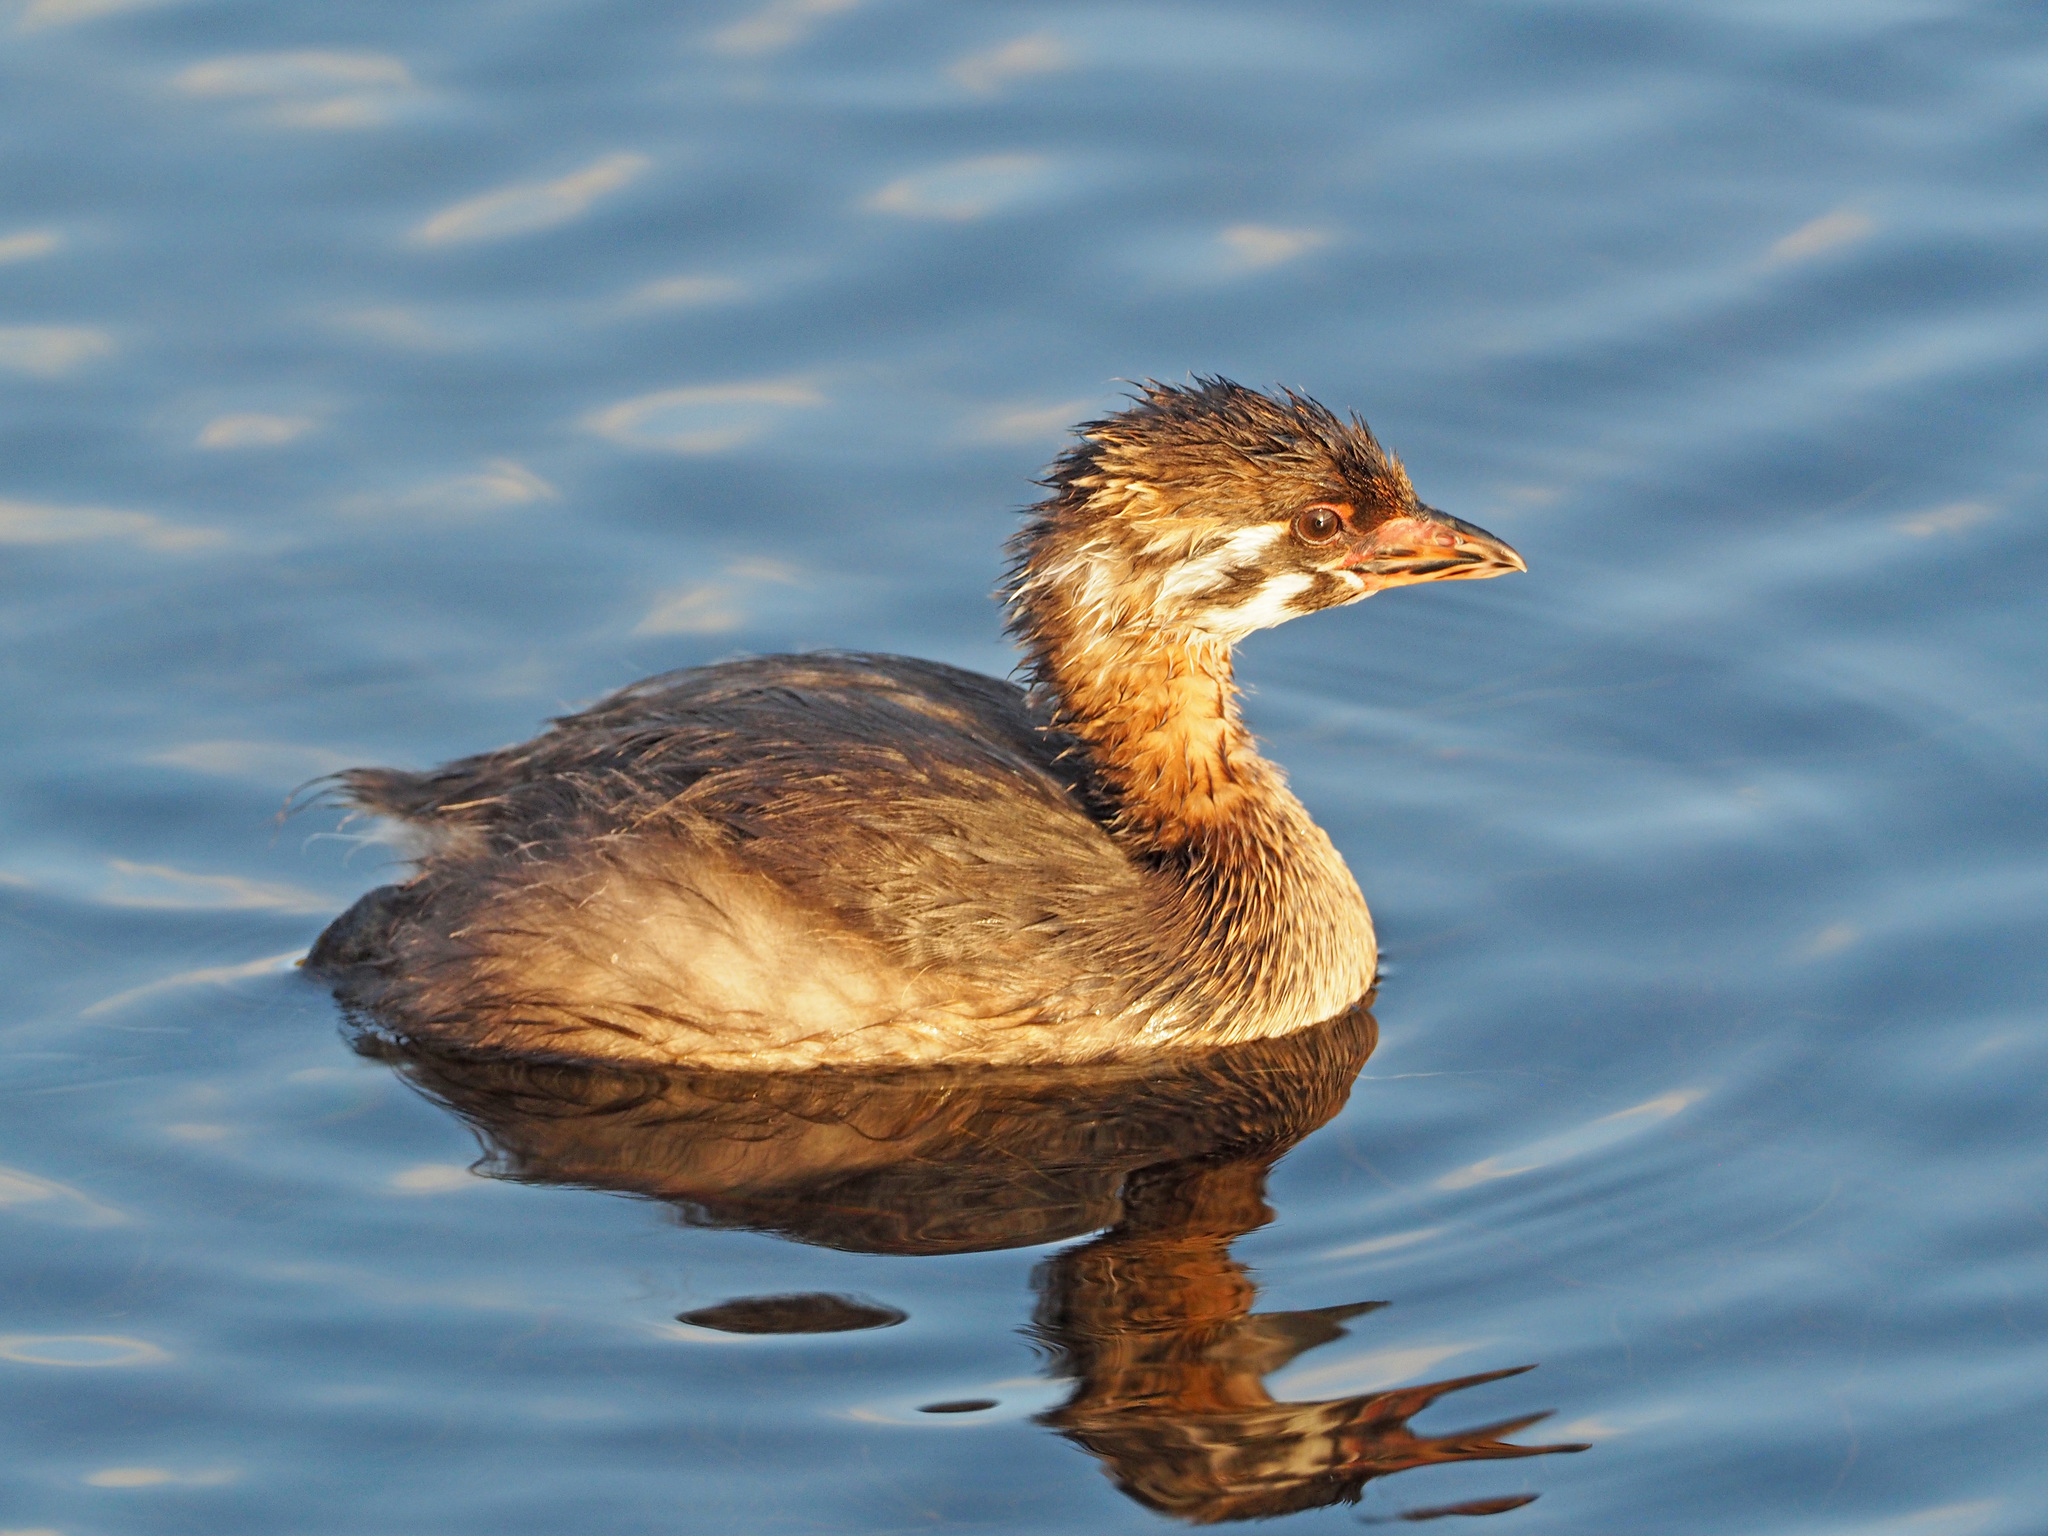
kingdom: Animalia
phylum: Chordata
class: Aves
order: Podicipediformes
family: Podicipedidae
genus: Podilymbus
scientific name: Podilymbus podiceps
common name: Pied-billed grebe
